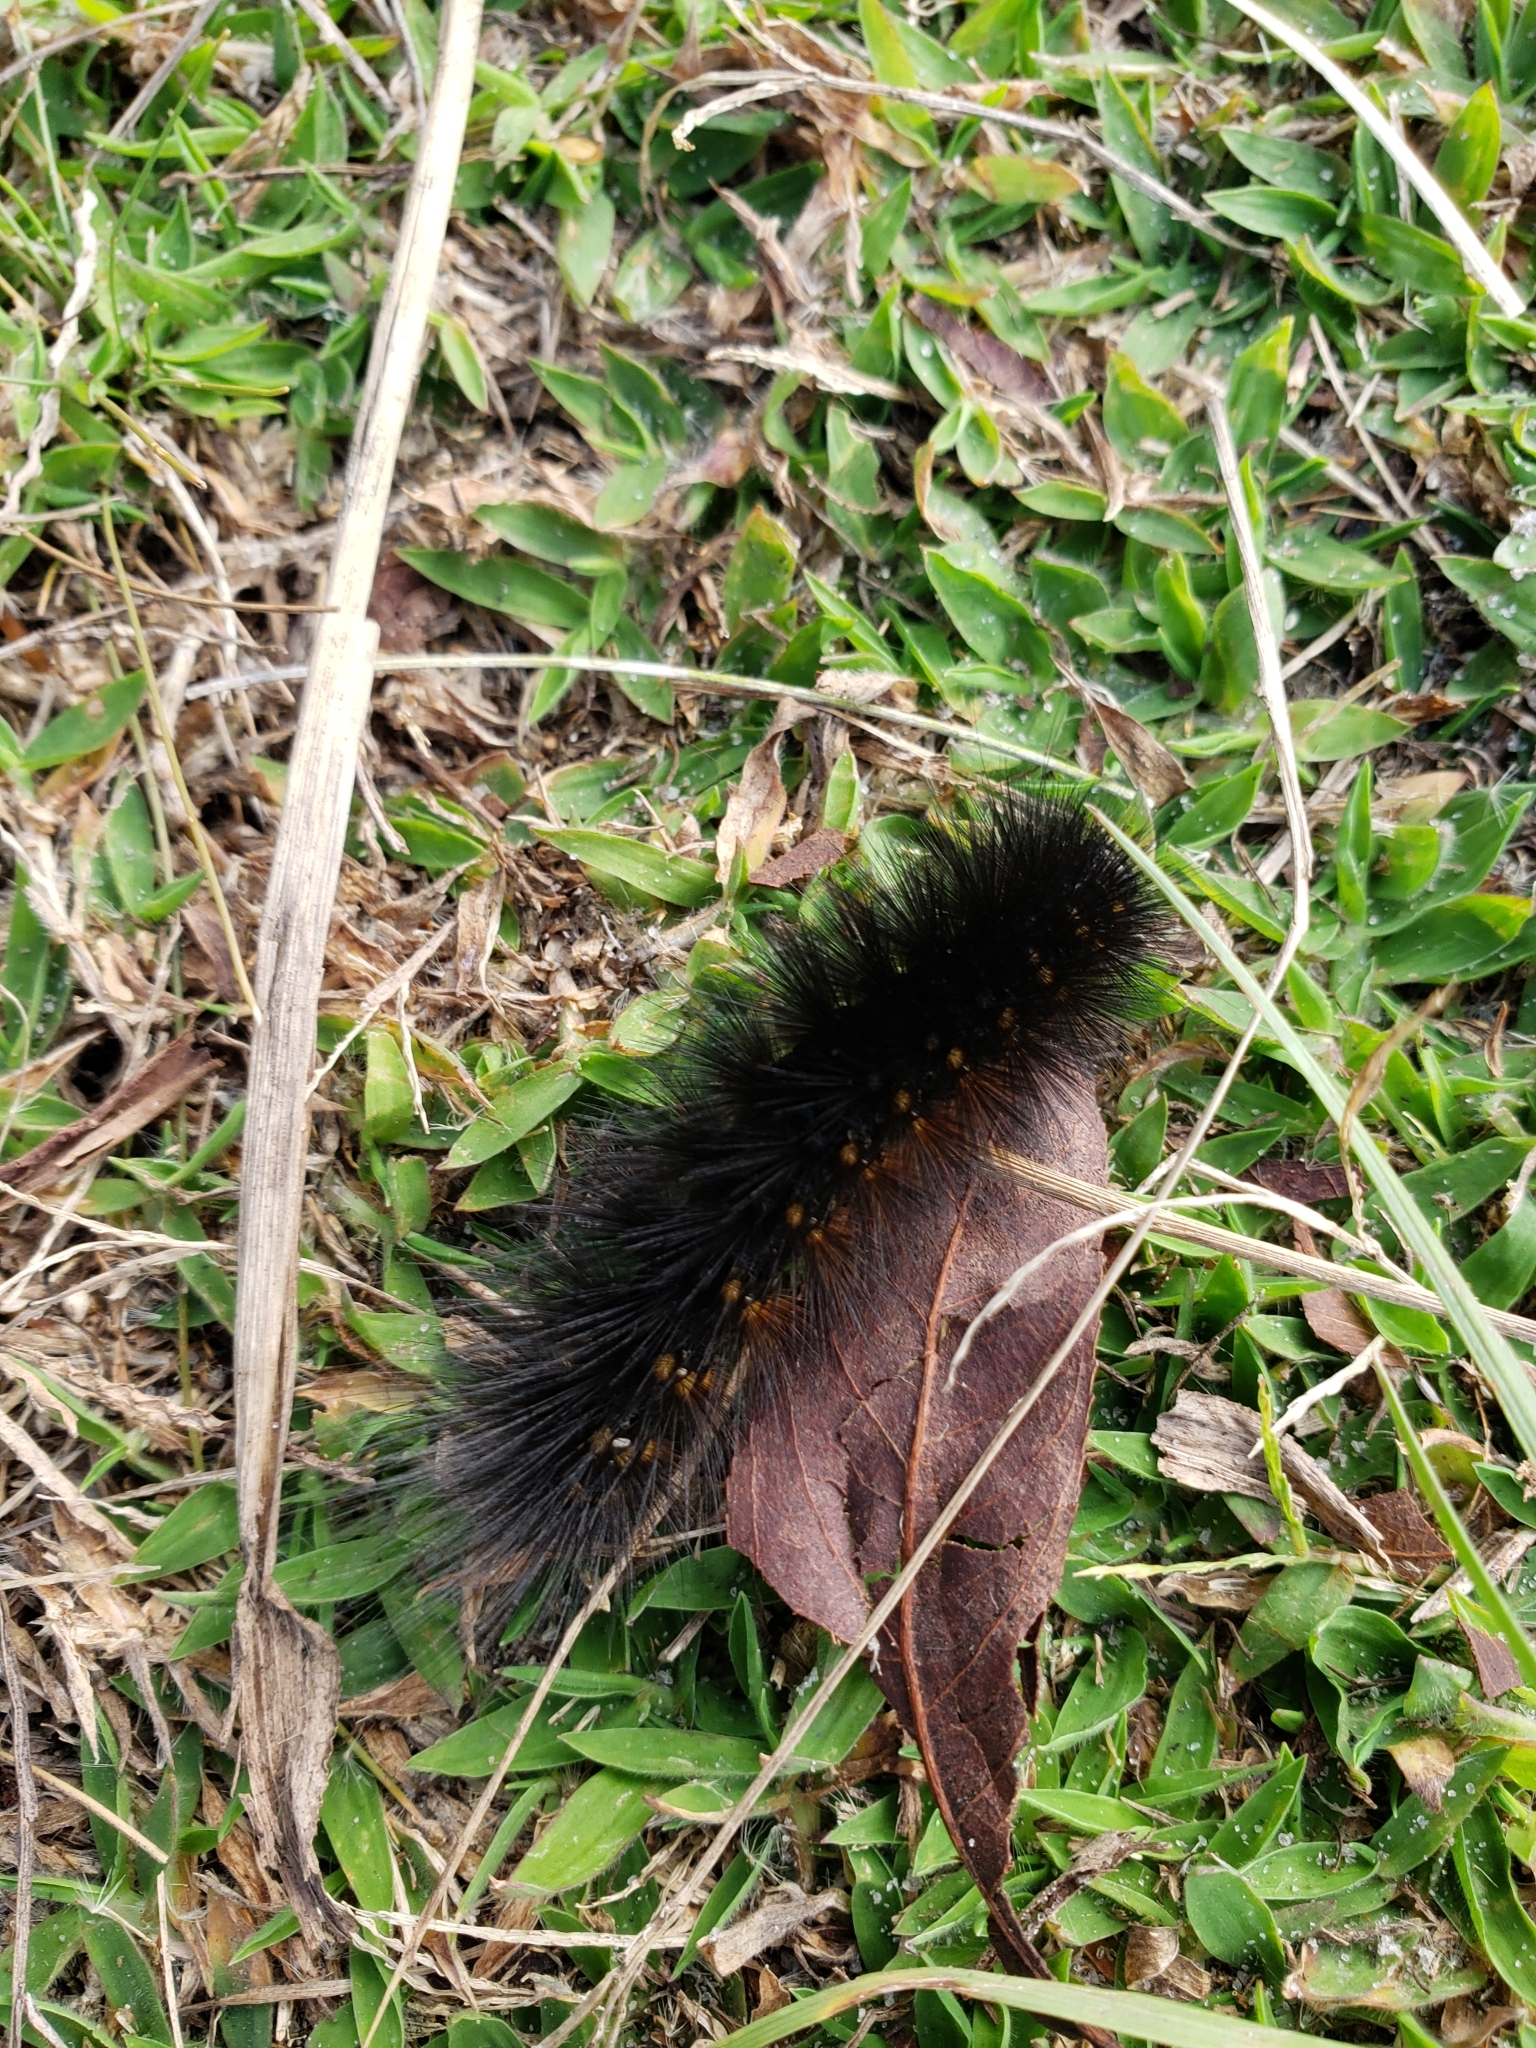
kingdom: Animalia
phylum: Arthropoda
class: Insecta
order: Lepidoptera
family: Erebidae
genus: Estigmene
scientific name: Estigmene acrea
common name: Salt marsh moth
